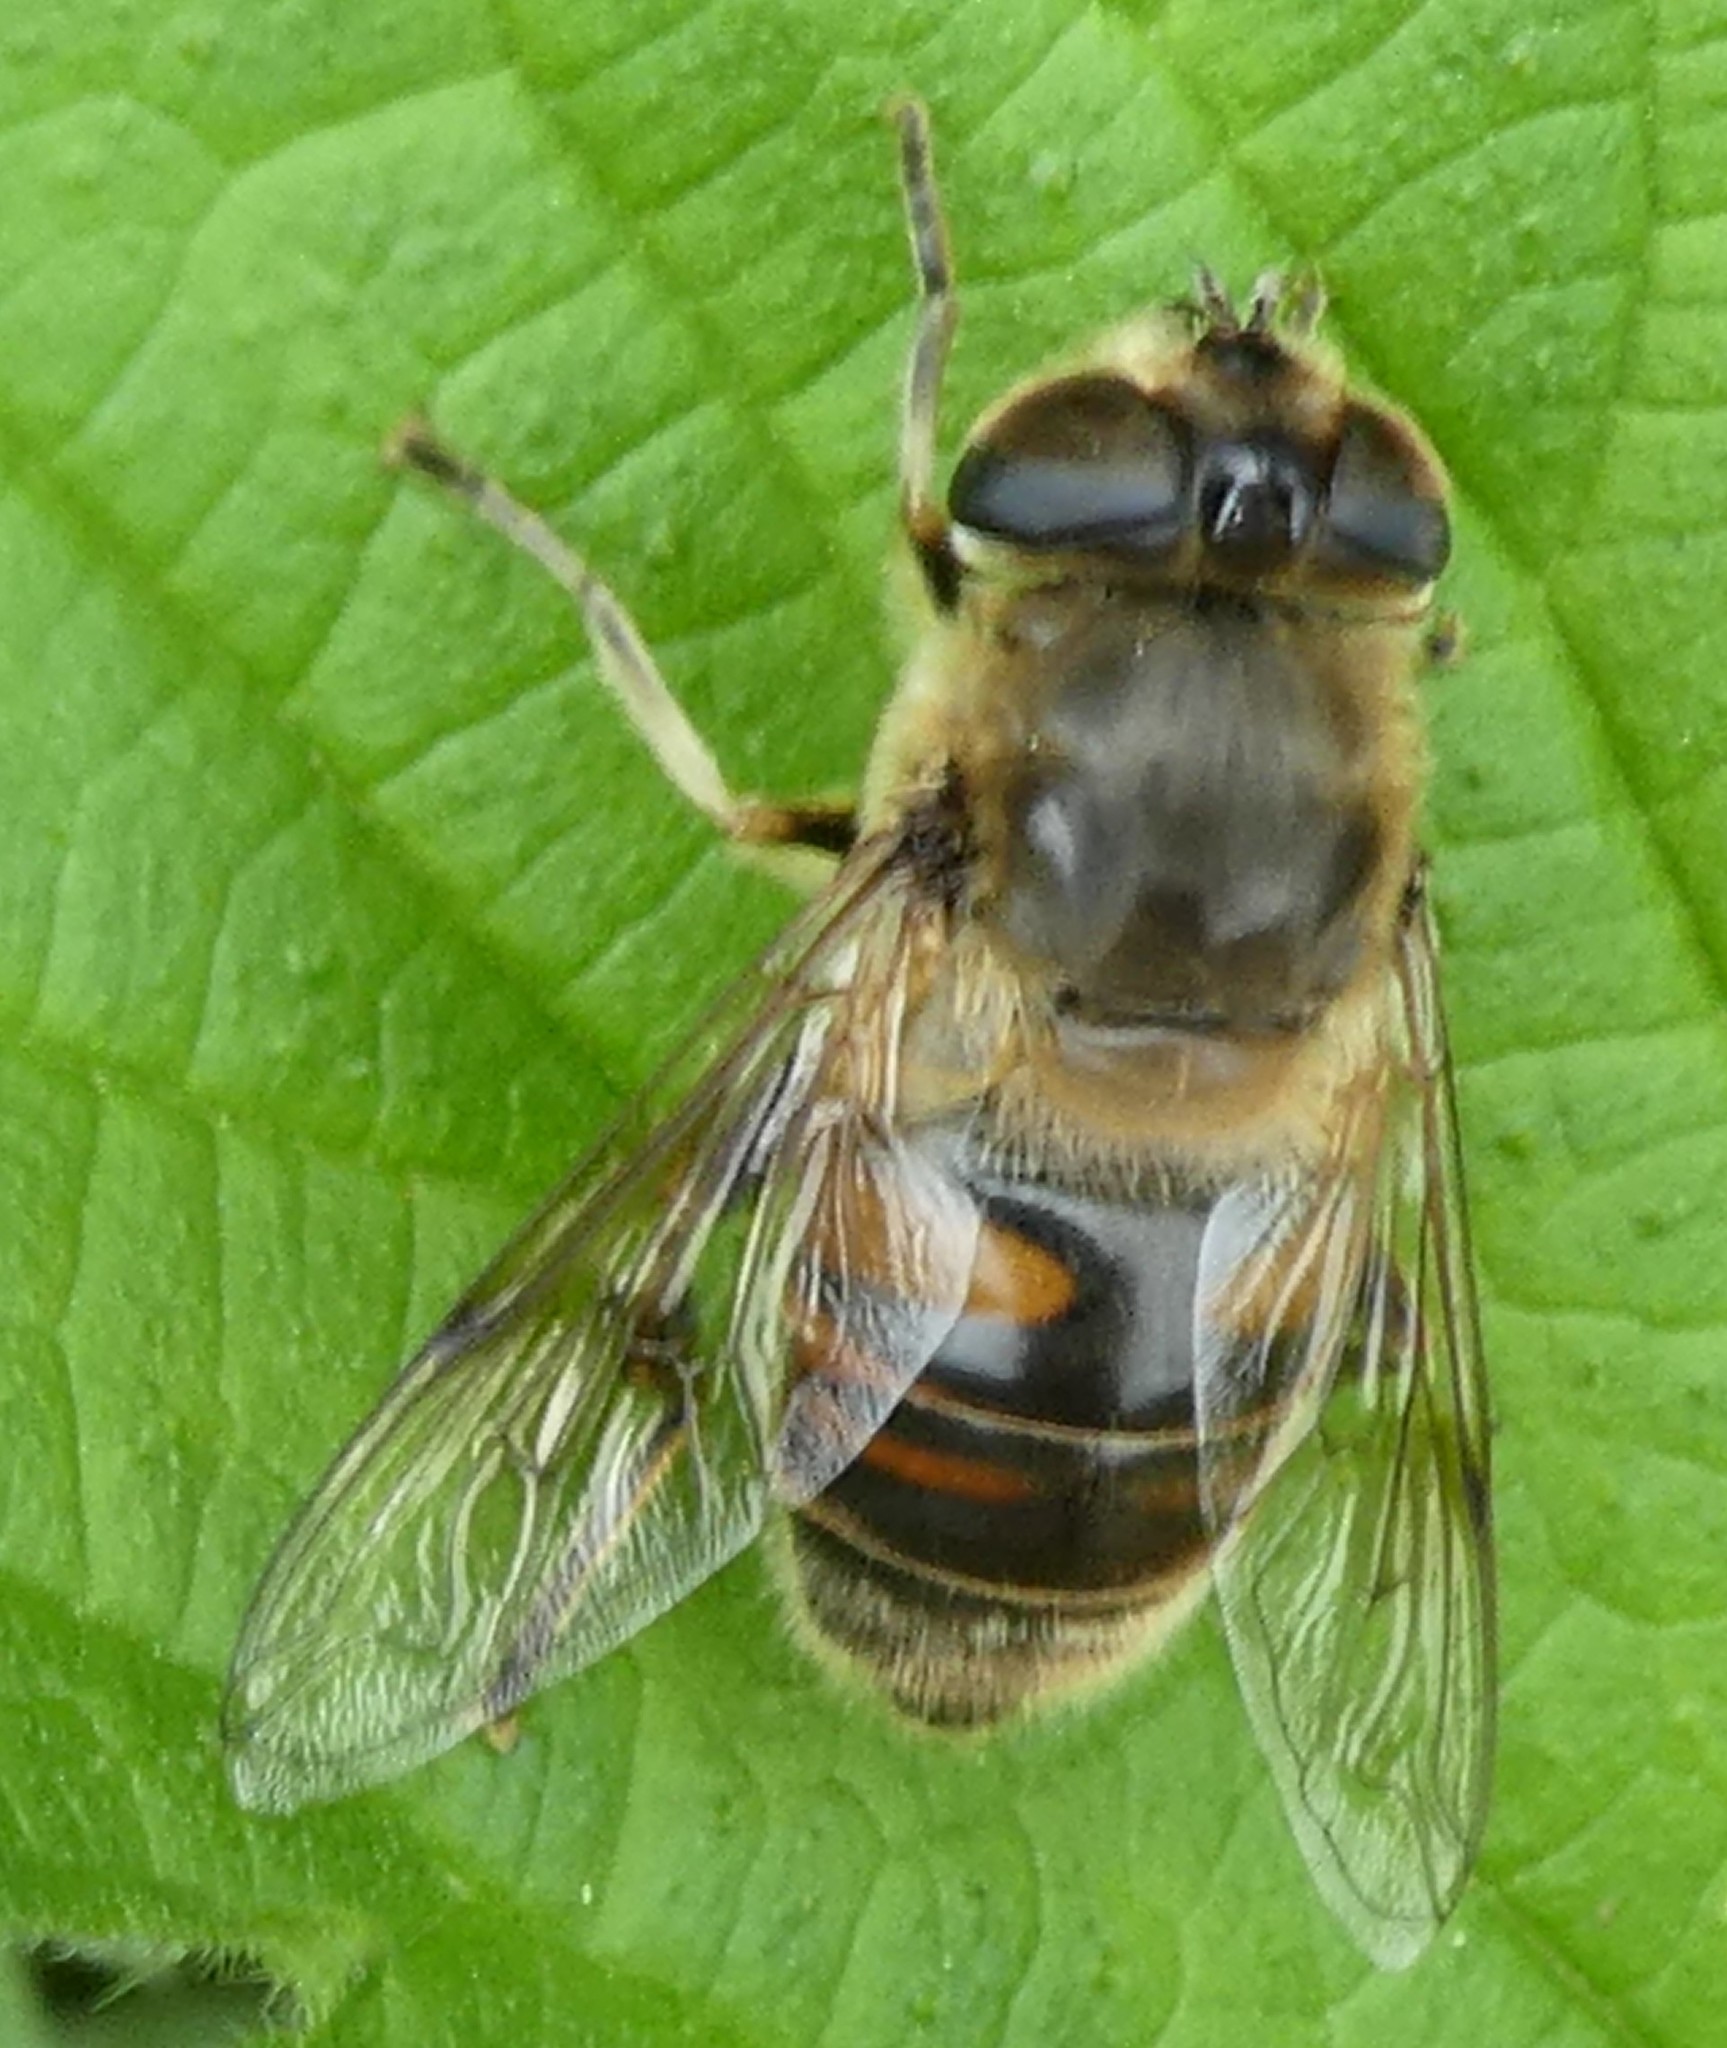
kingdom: Animalia
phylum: Arthropoda
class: Insecta
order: Diptera
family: Syrphidae
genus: Eristalis
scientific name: Eristalis tenax
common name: Drone fly
